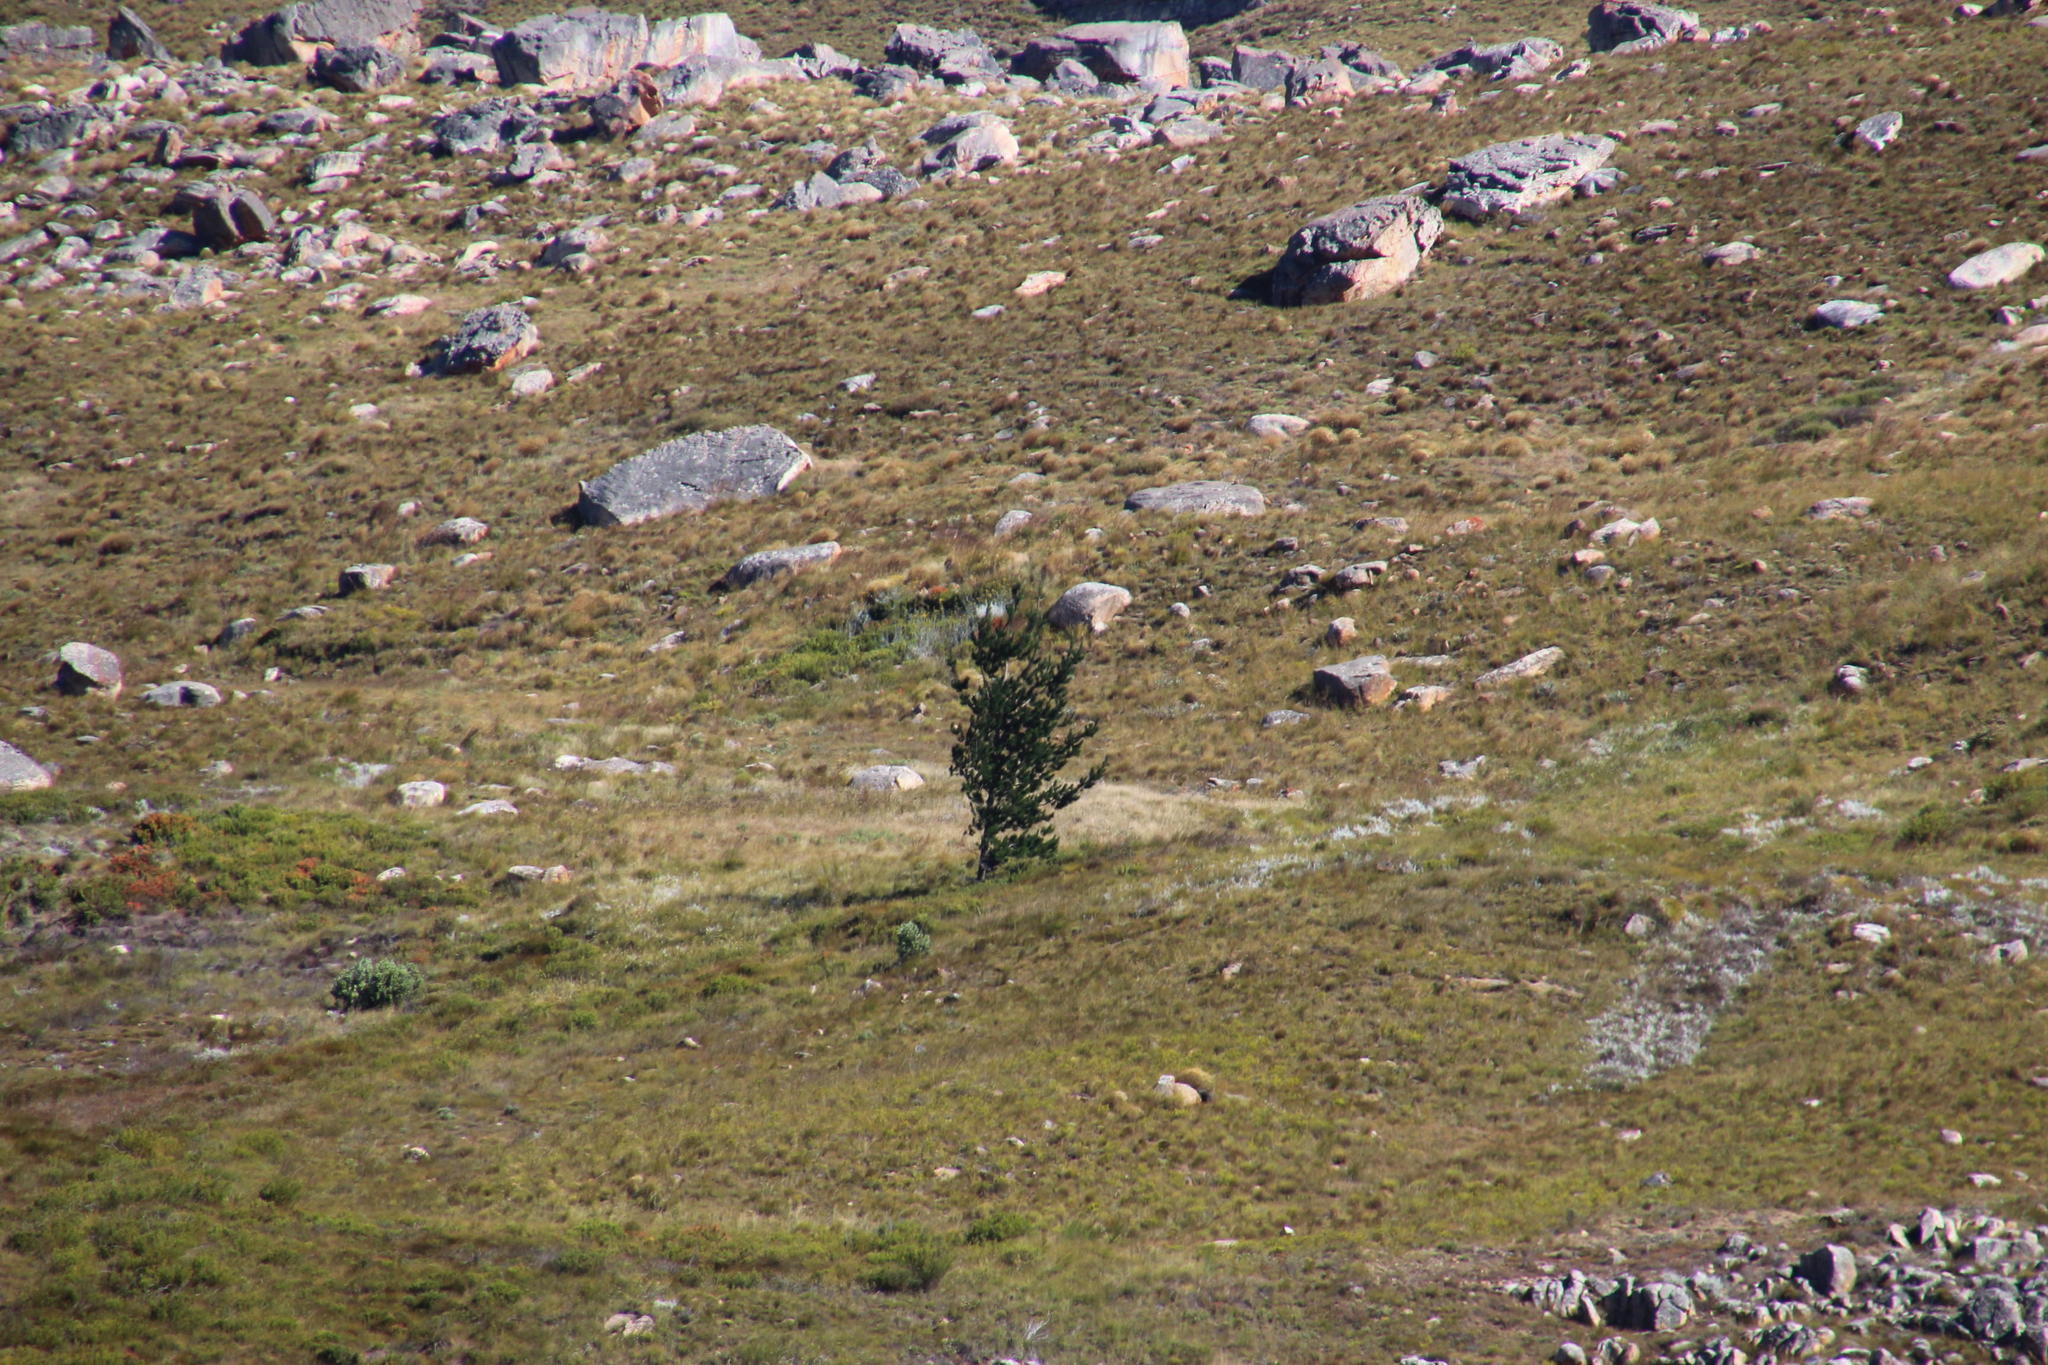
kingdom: Plantae
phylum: Tracheophyta
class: Pinopsida
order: Pinales
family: Pinaceae
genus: Pinus
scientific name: Pinus radiata
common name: Monterey pine
